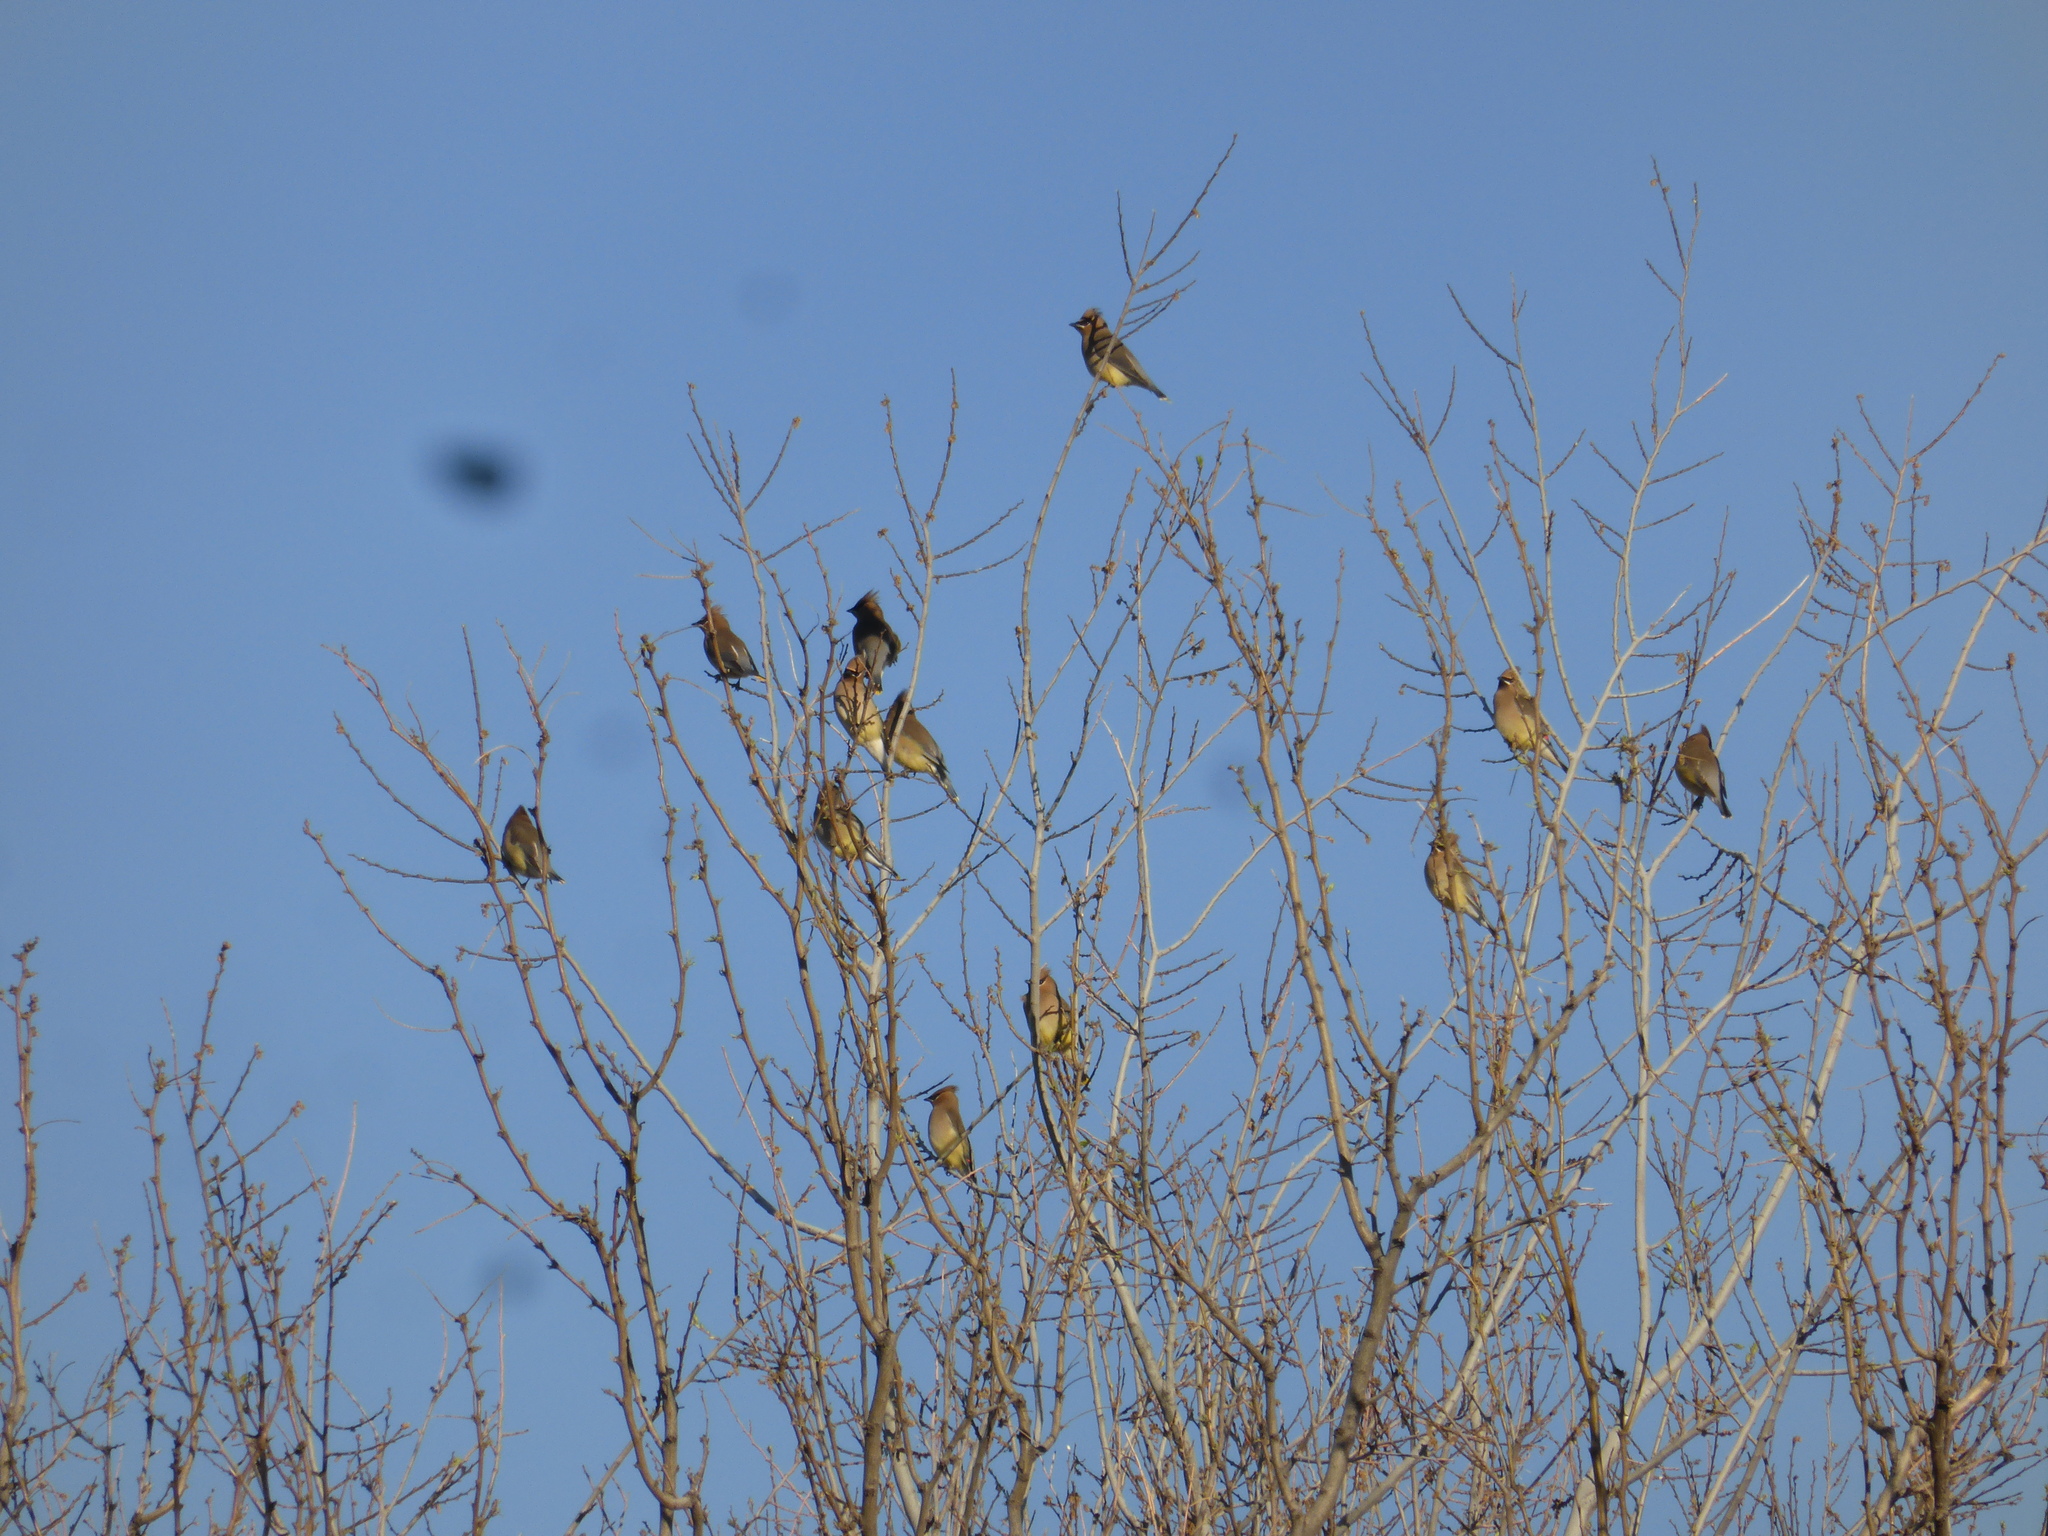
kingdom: Animalia
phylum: Chordata
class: Aves
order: Passeriformes
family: Bombycillidae
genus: Bombycilla
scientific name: Bombycilla cedrorum
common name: Cedar waxwing
